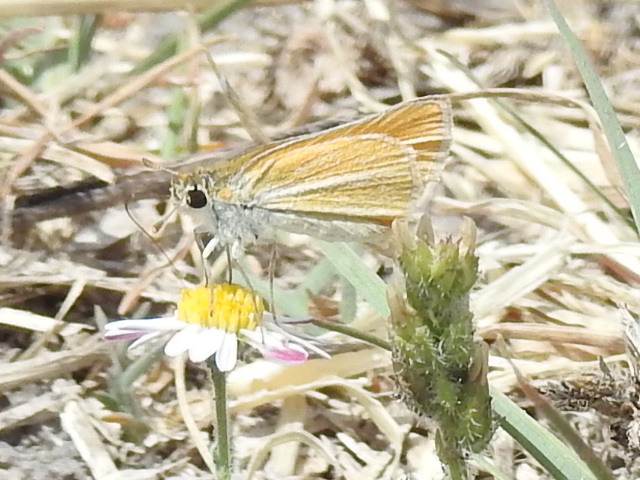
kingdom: Animalia
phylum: Arthropoda
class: Insecta
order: Lepidoptera
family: Hesperiidae
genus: Copaeodes
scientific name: Copaeodes minima
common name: Southern skipperling
